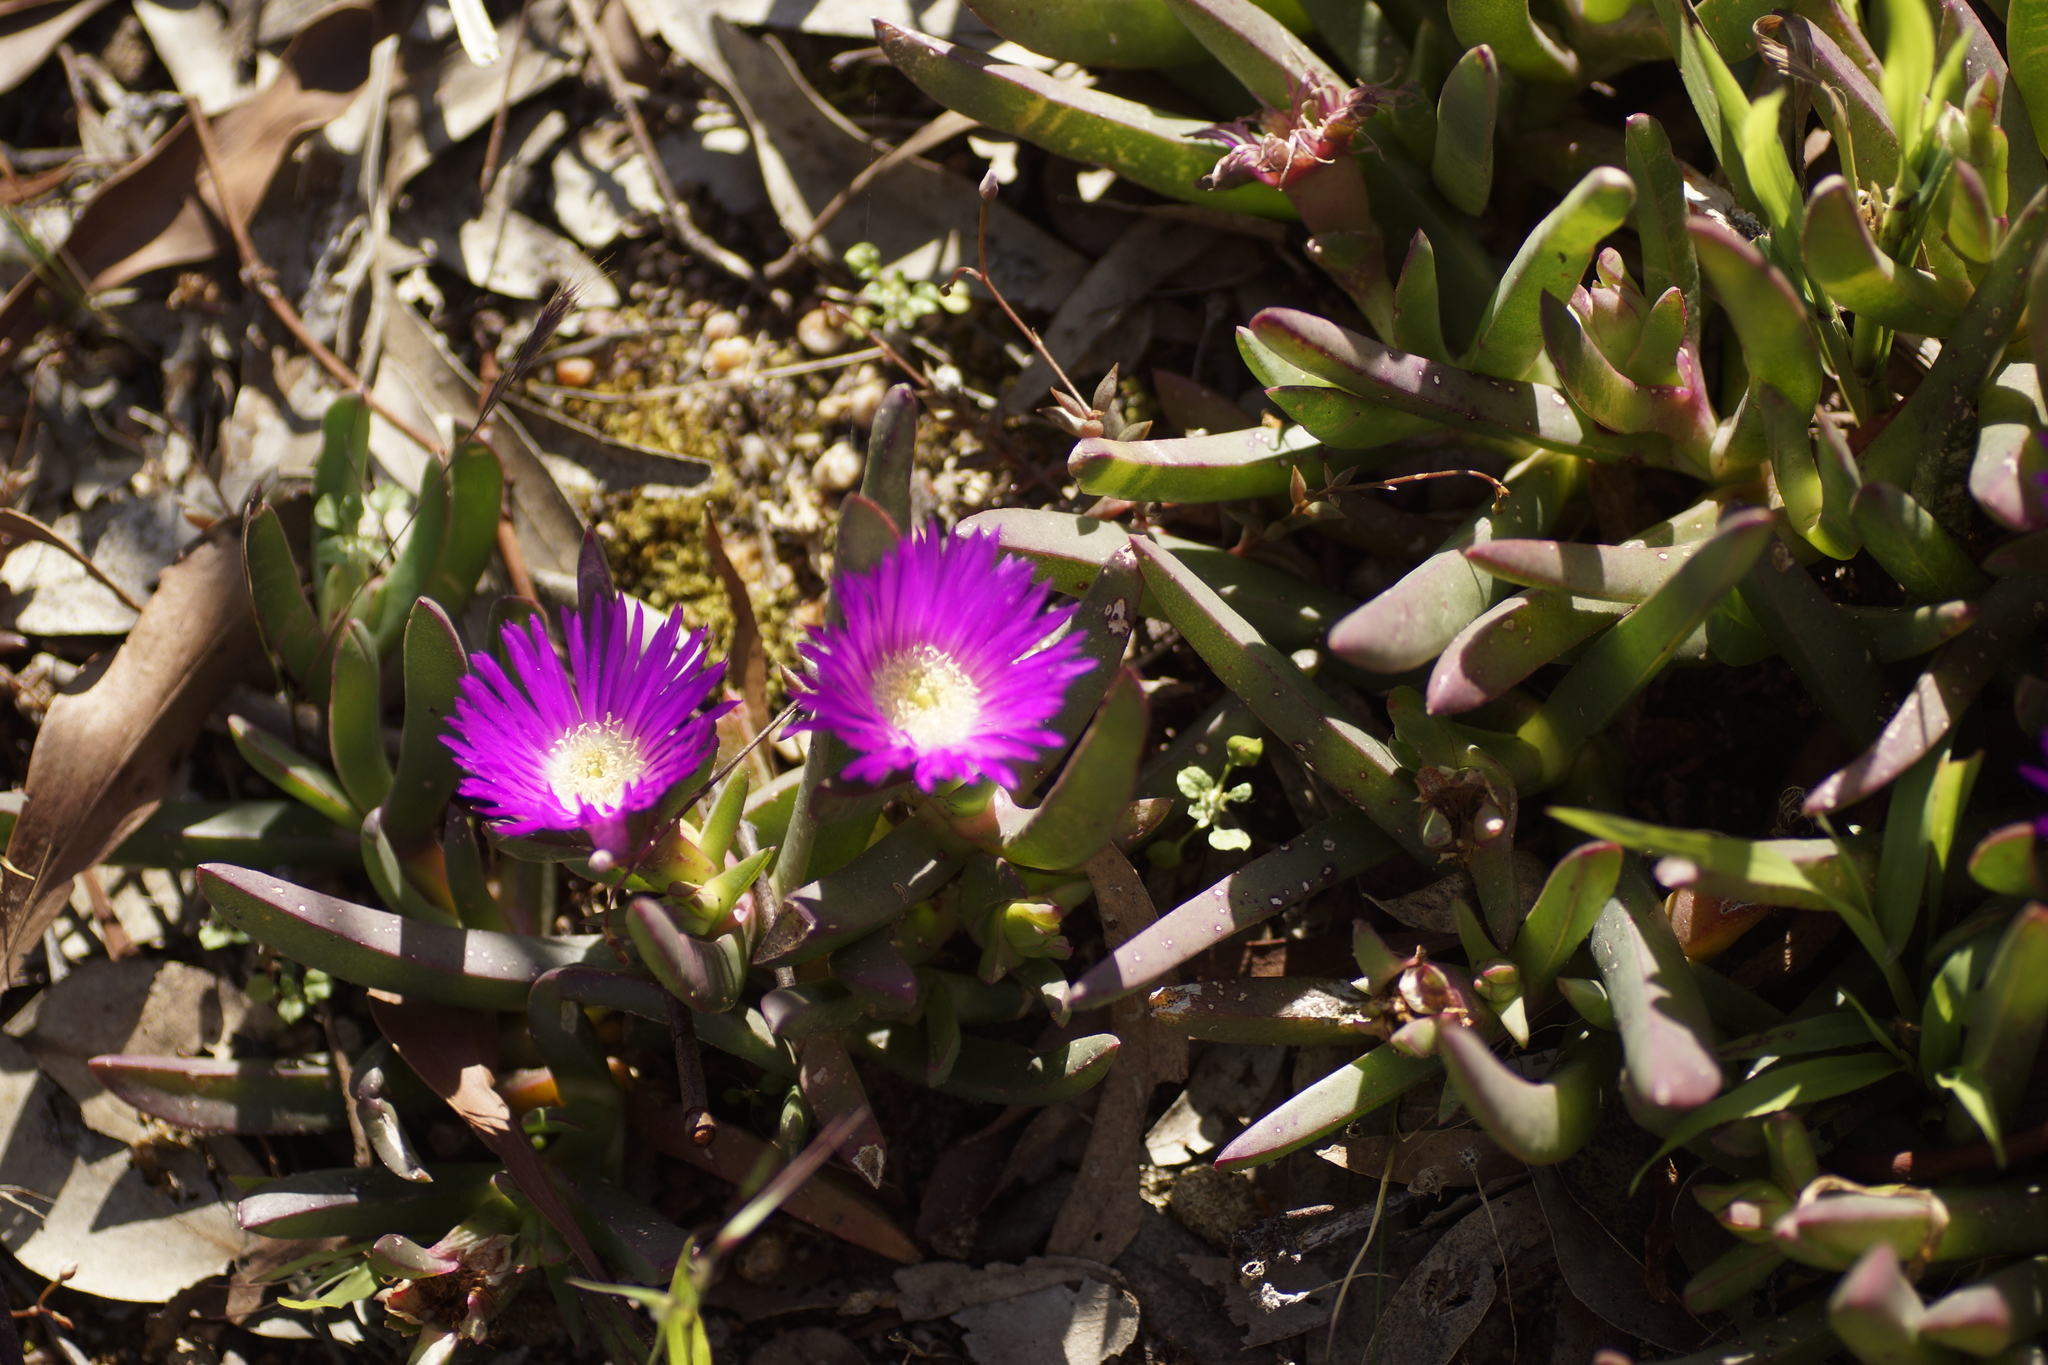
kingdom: Plantae
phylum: Tracheophyta
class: Magnoliopsida
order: Caryophyllales
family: Aizoaceae
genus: Carpobrotus
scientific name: Carpobrotus modestus
